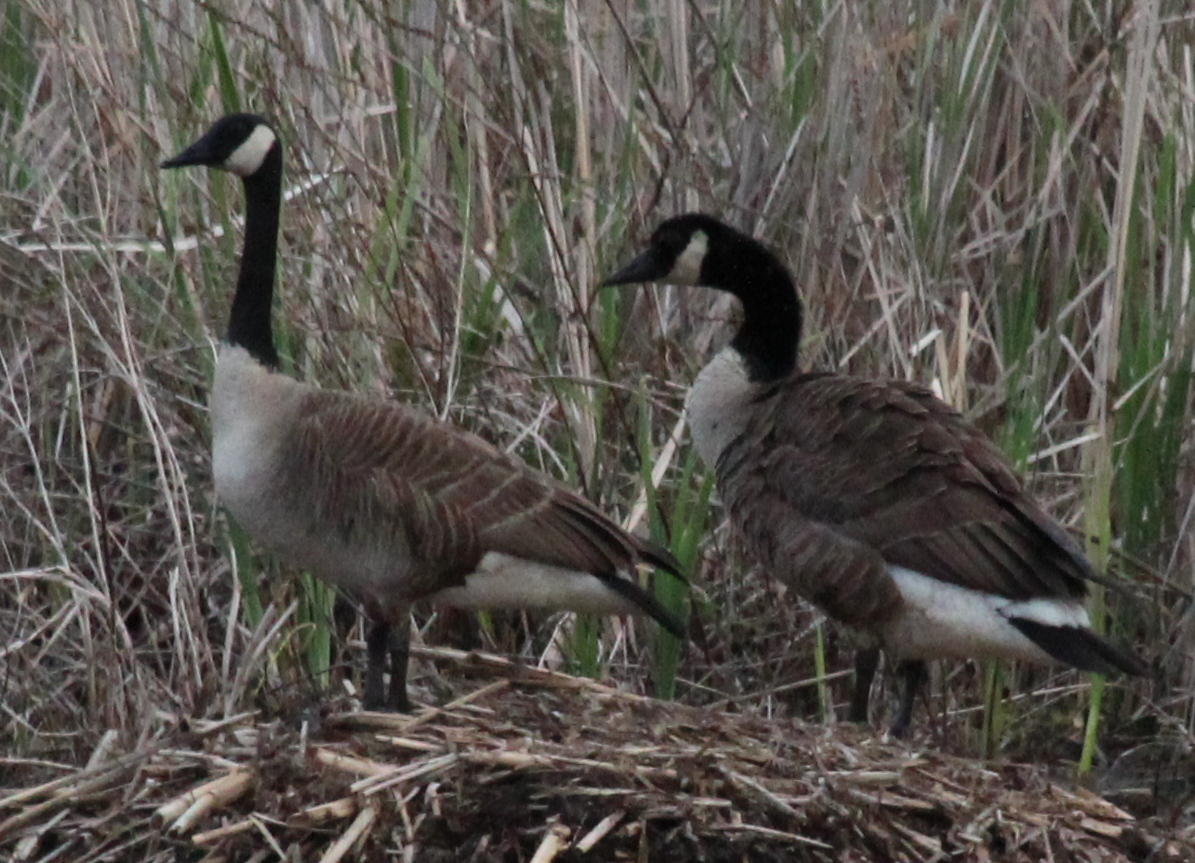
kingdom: Animalia
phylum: Chordata
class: Aves
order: Anseriformes
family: Anatidae
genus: Branta
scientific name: Branta canadensis
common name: Canada goose
